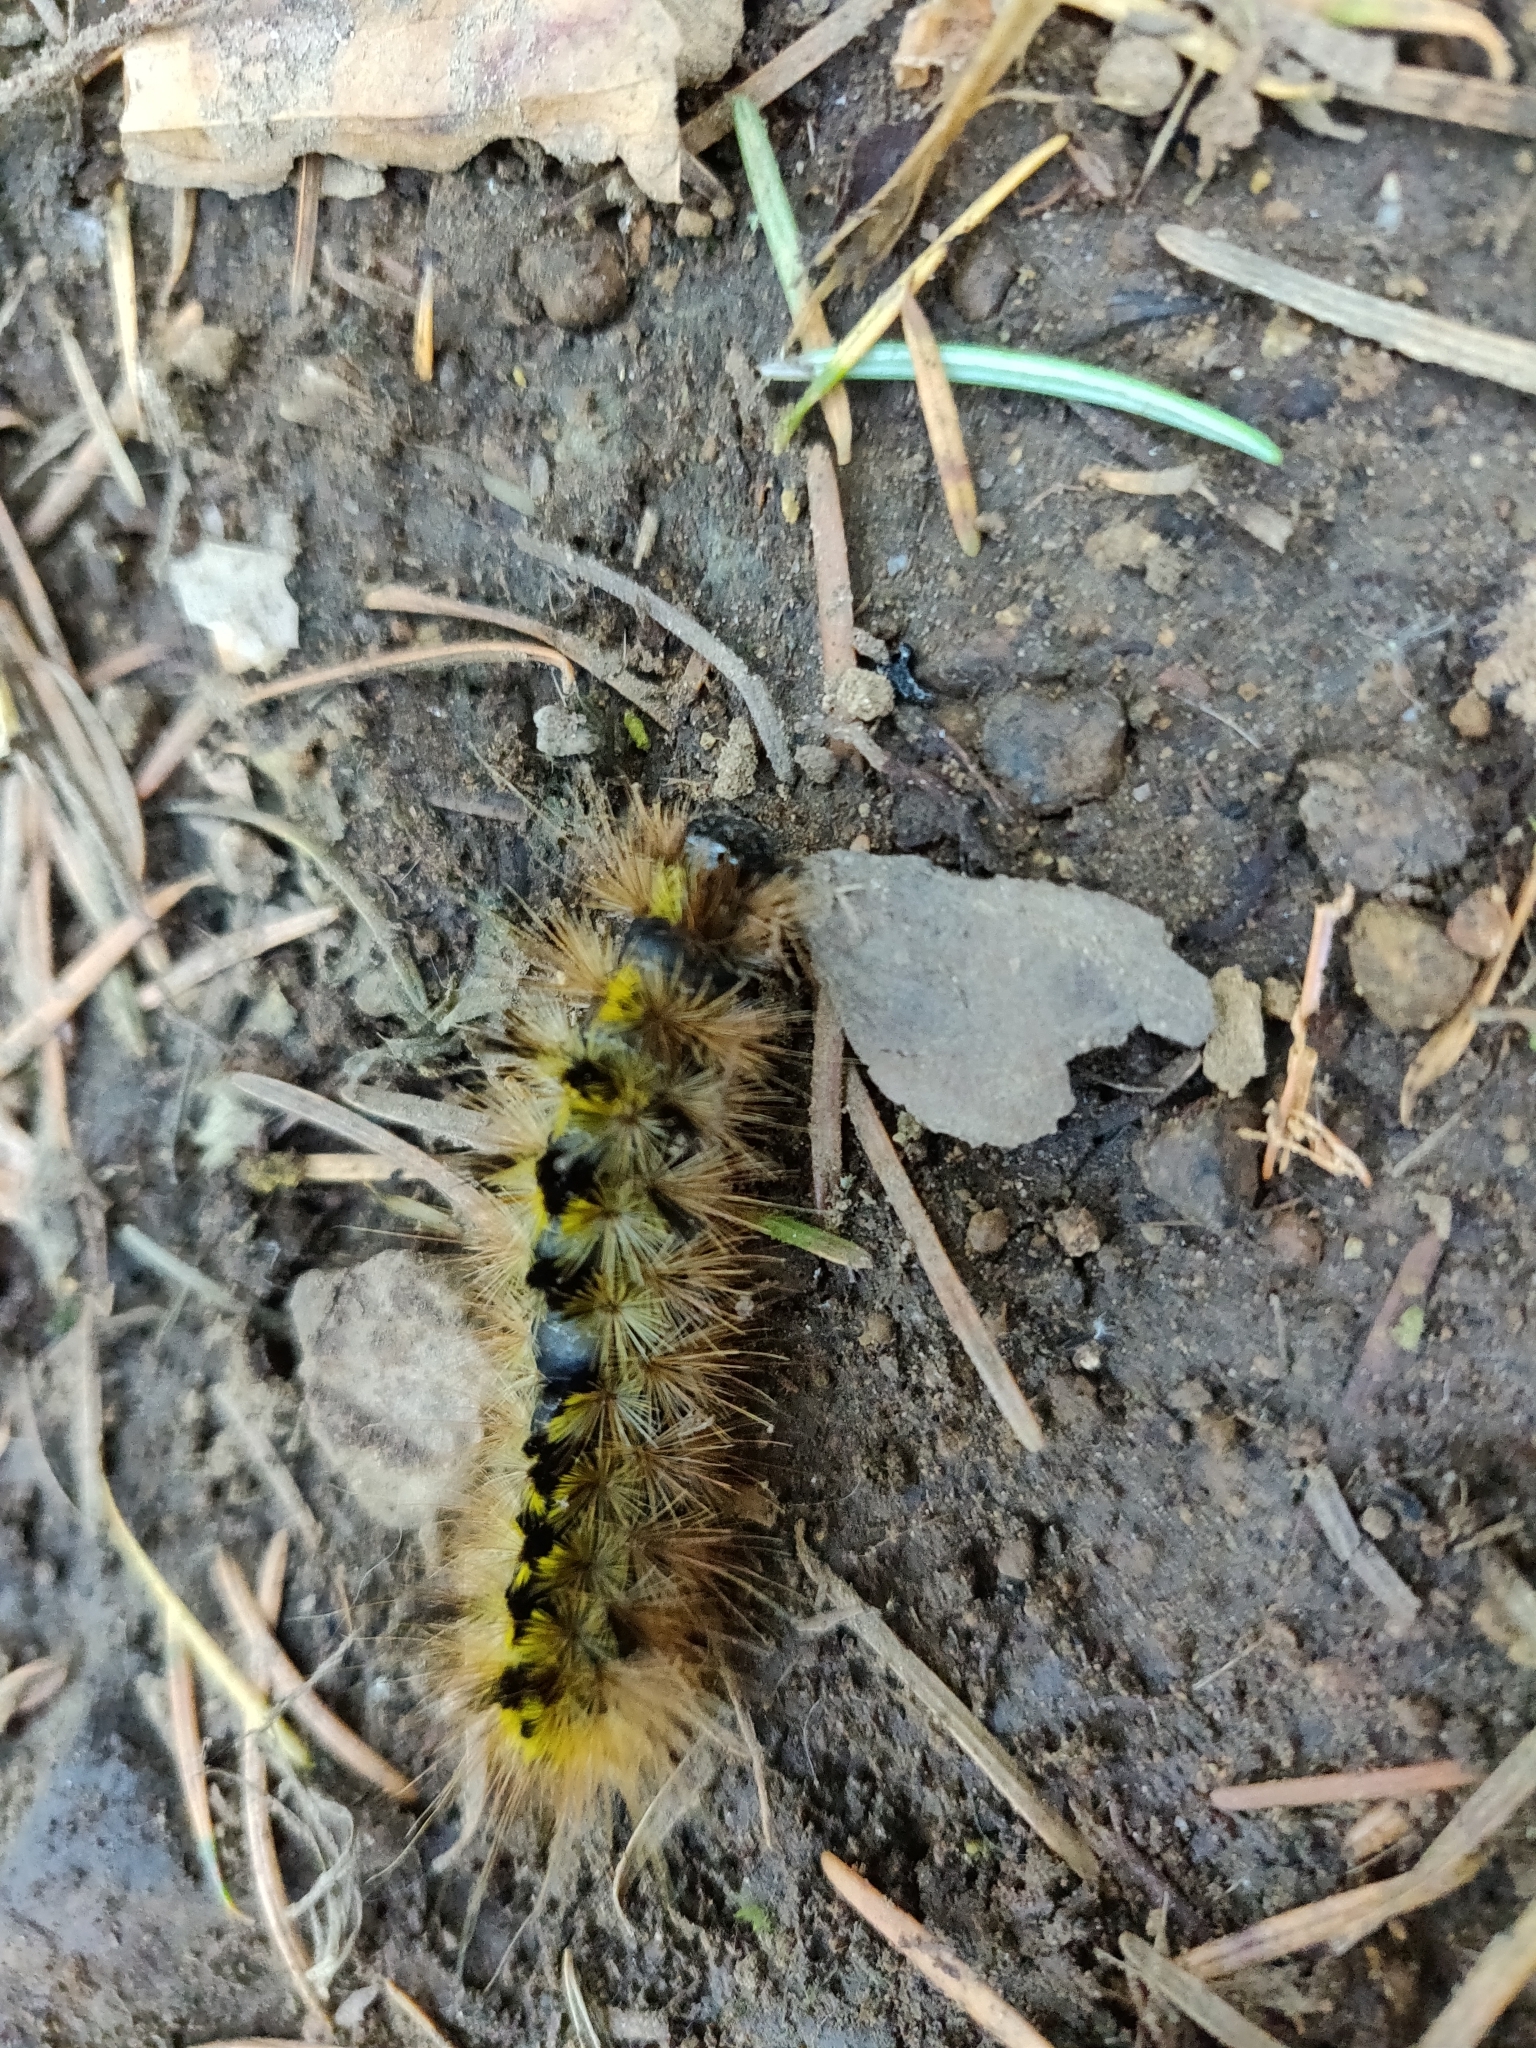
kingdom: Animalia
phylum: Arthropoda
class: Insecta
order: Lepidoptera
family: Erebidae
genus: Lophocampa
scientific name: Lophocampa argentata
